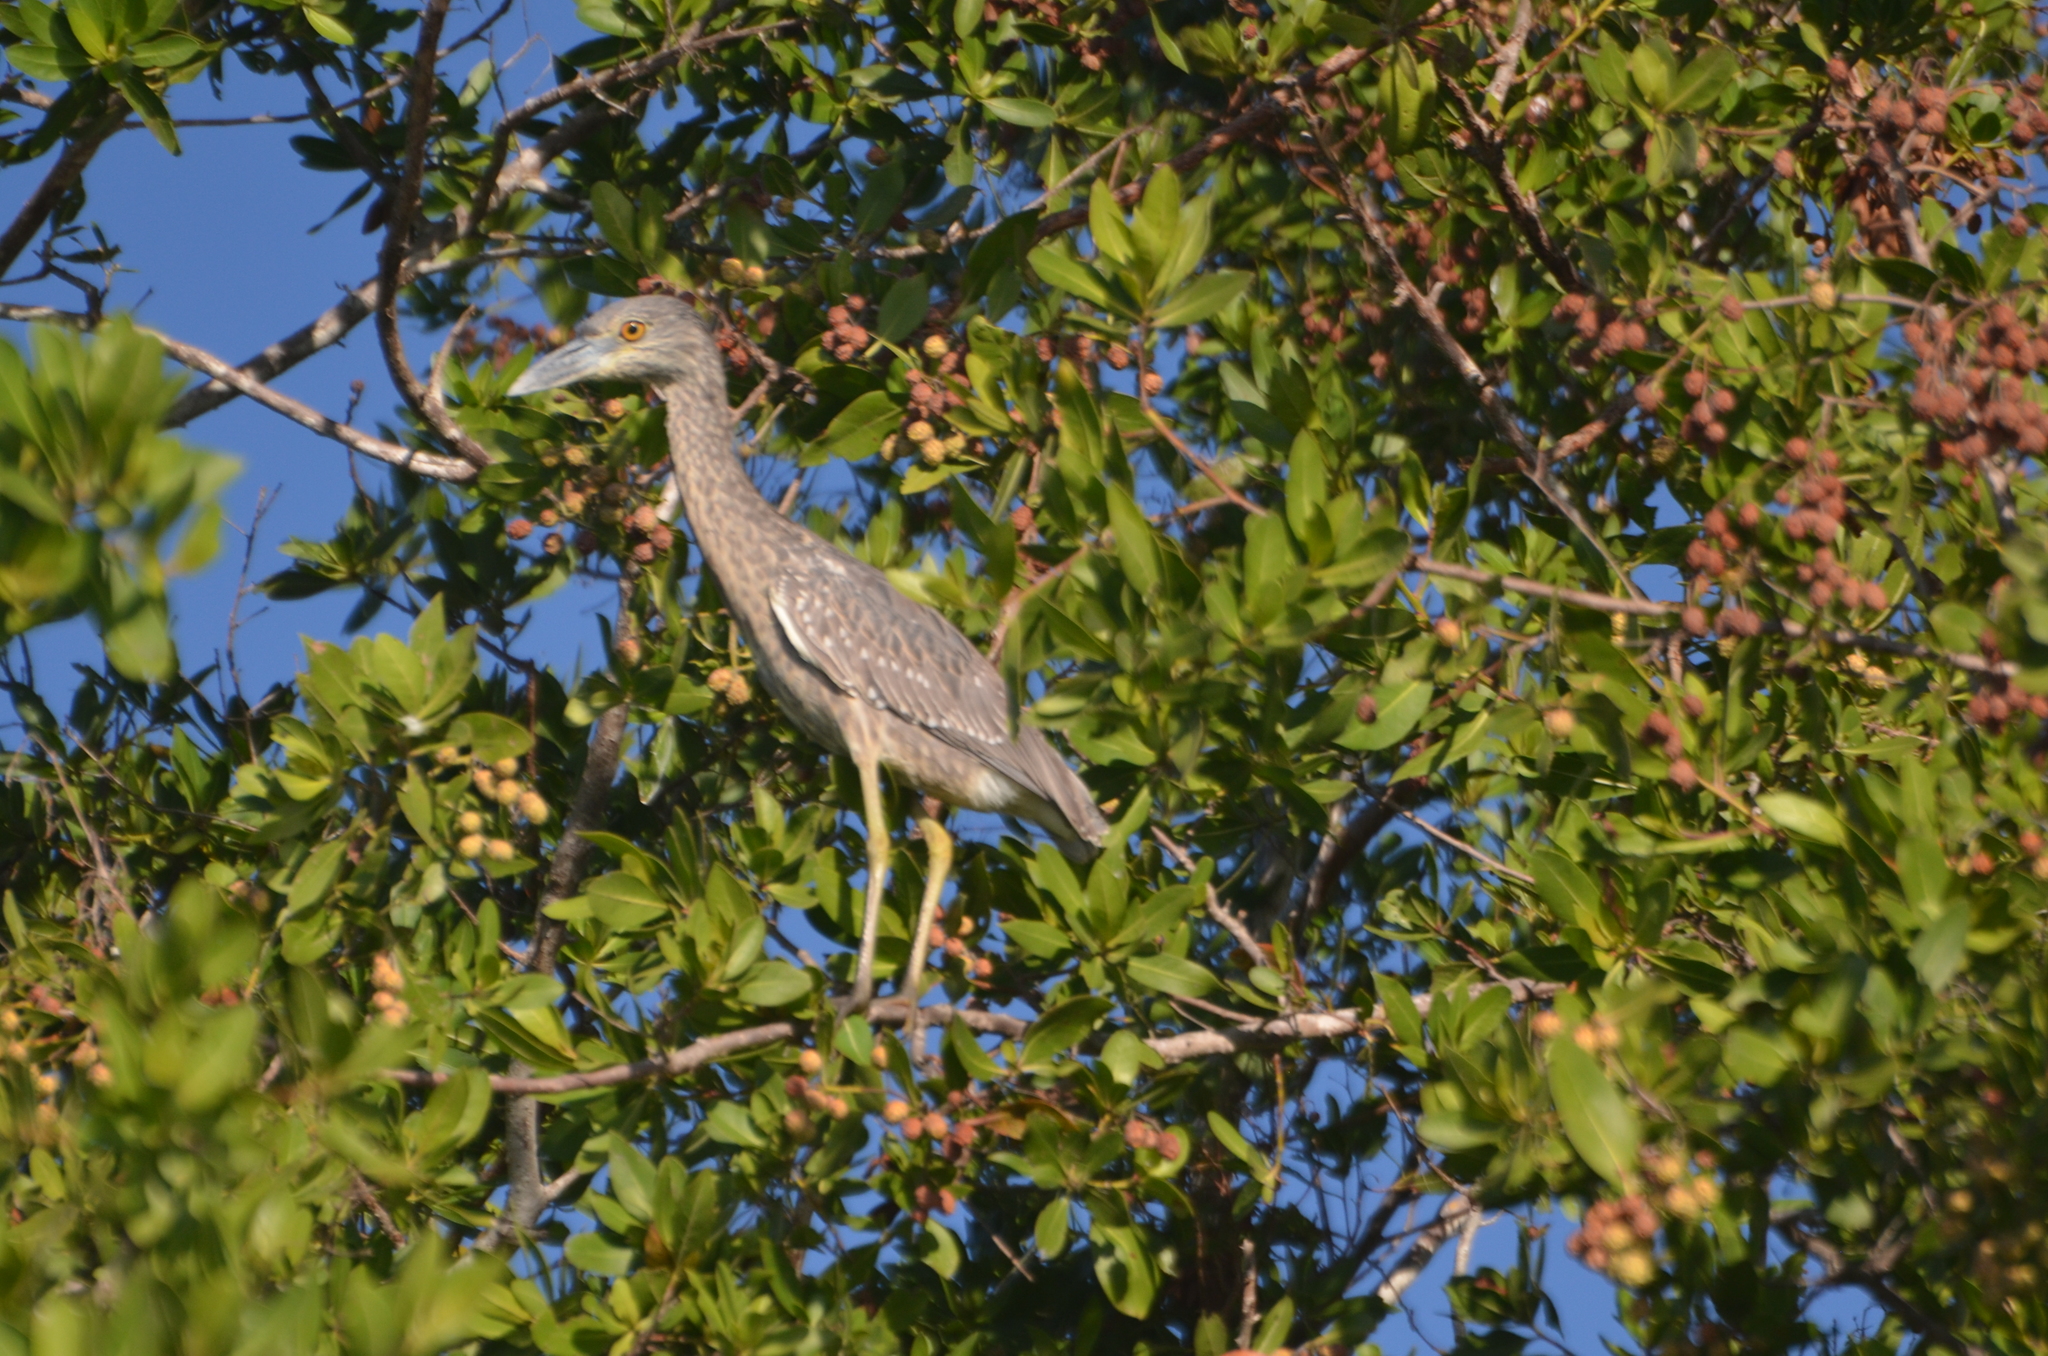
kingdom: Animalia
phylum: Chordata
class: Aves
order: Pelecaniformes
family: Ardeidae
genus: Nyctanassa
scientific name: Nyctanassa violacea
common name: Yellow-crowned night heron
